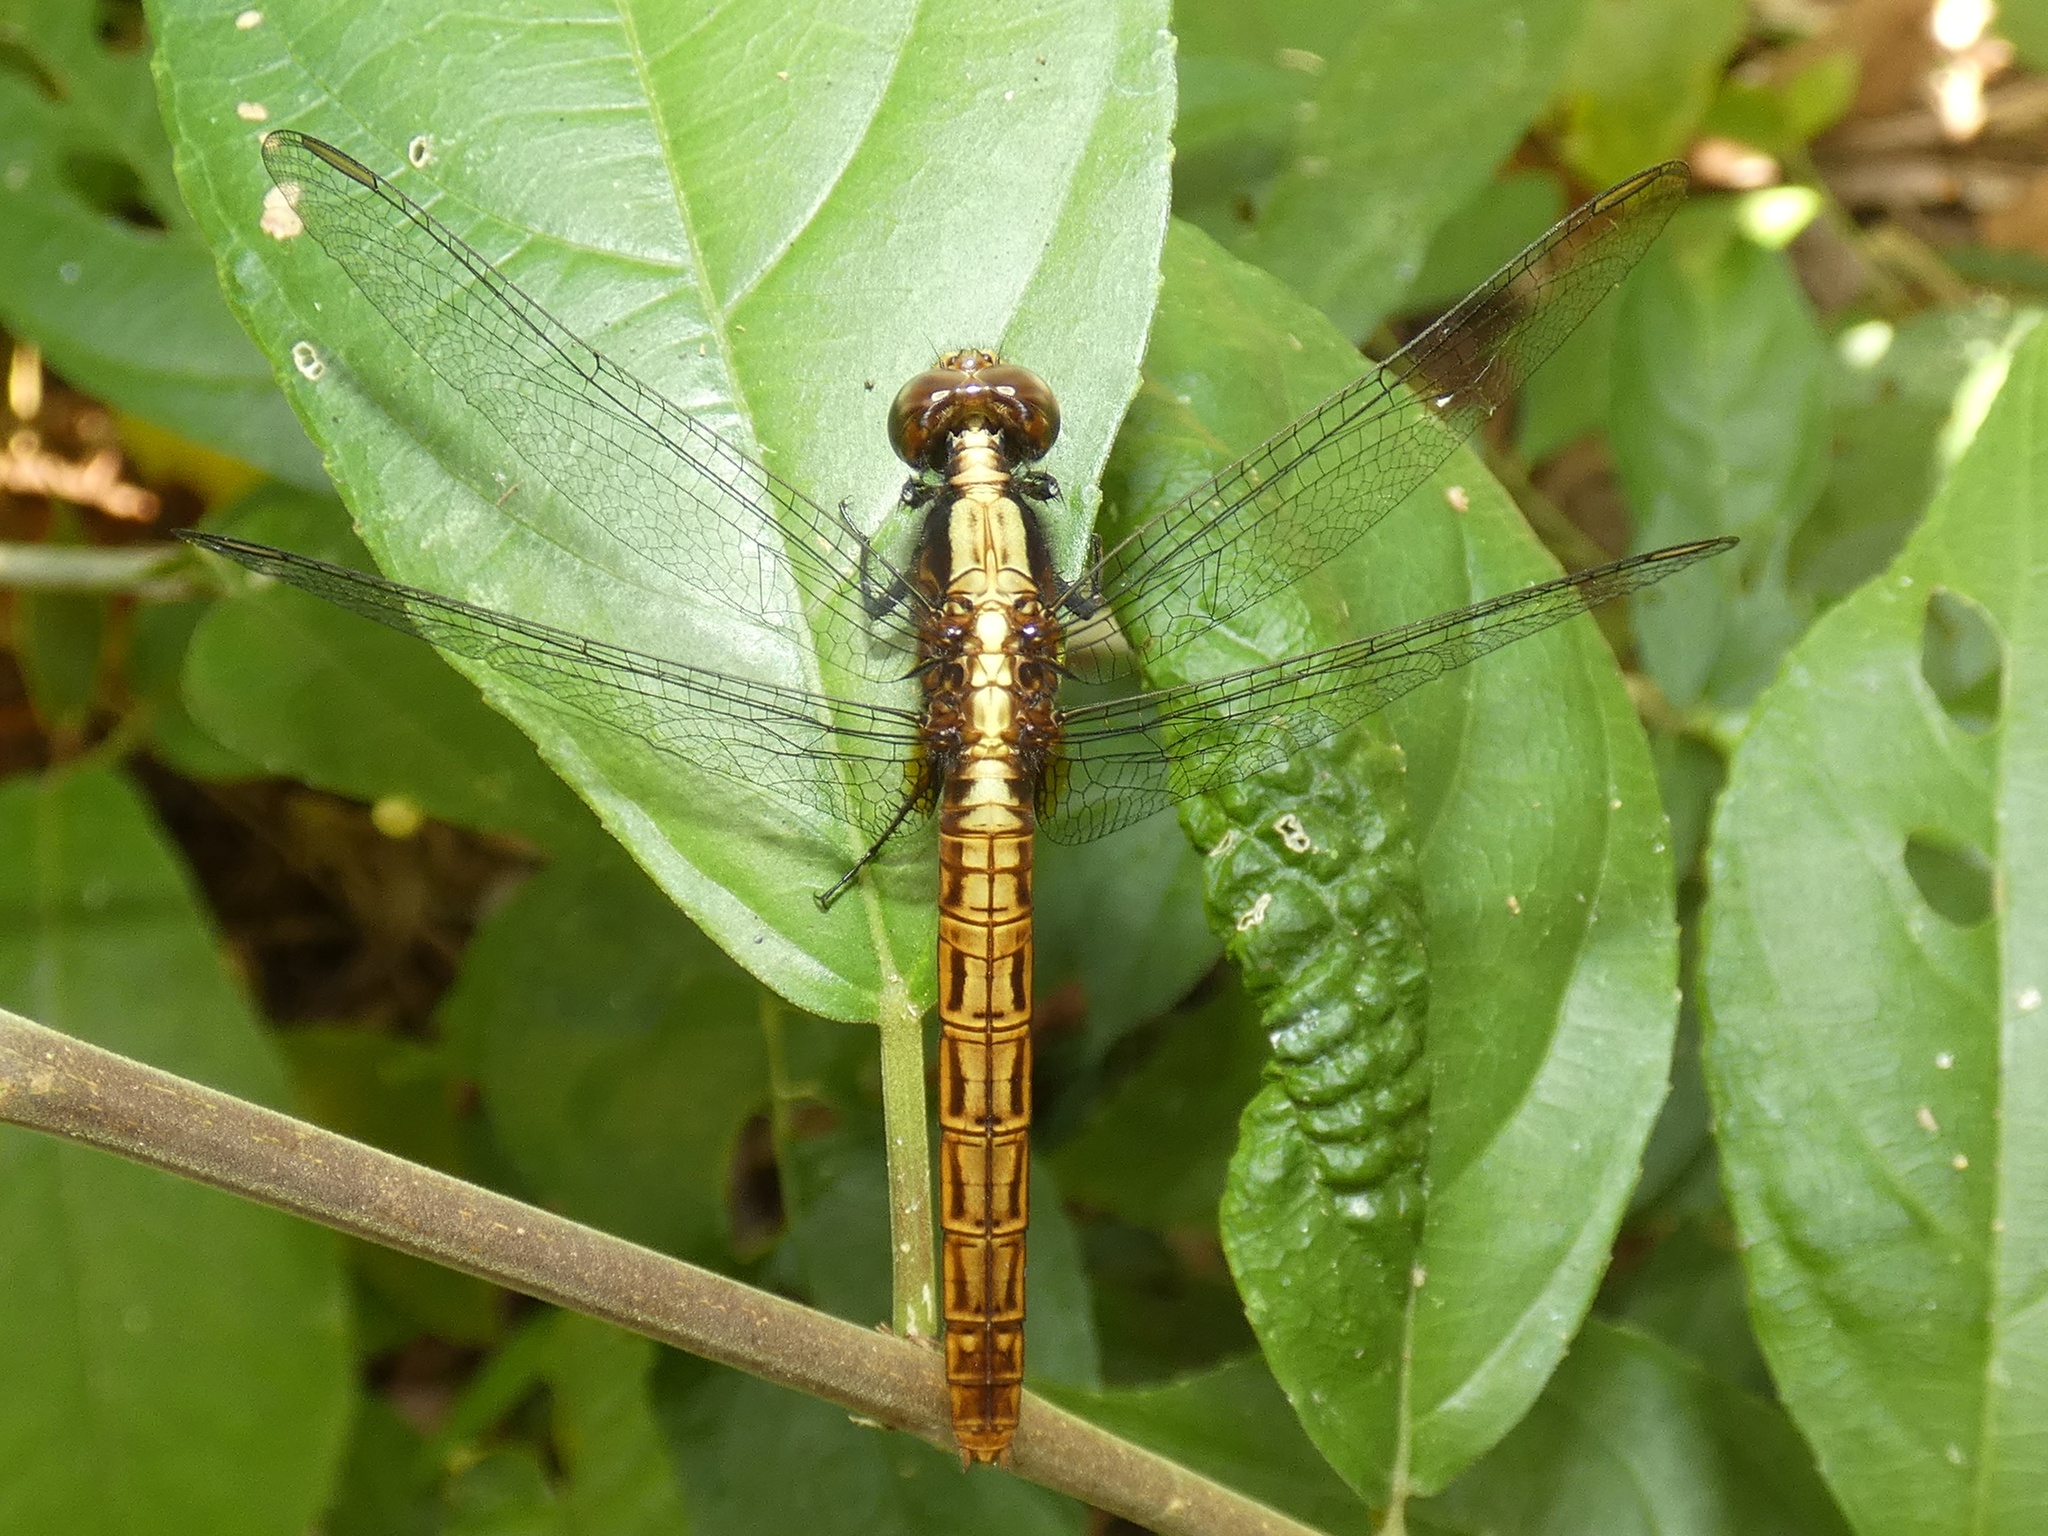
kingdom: Animalia
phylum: Arthropoda
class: Insecta
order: Odonata
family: Libellulidae
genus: Erythemis
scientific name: Erythemis peruviana
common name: Flame-tailed pondhawk
